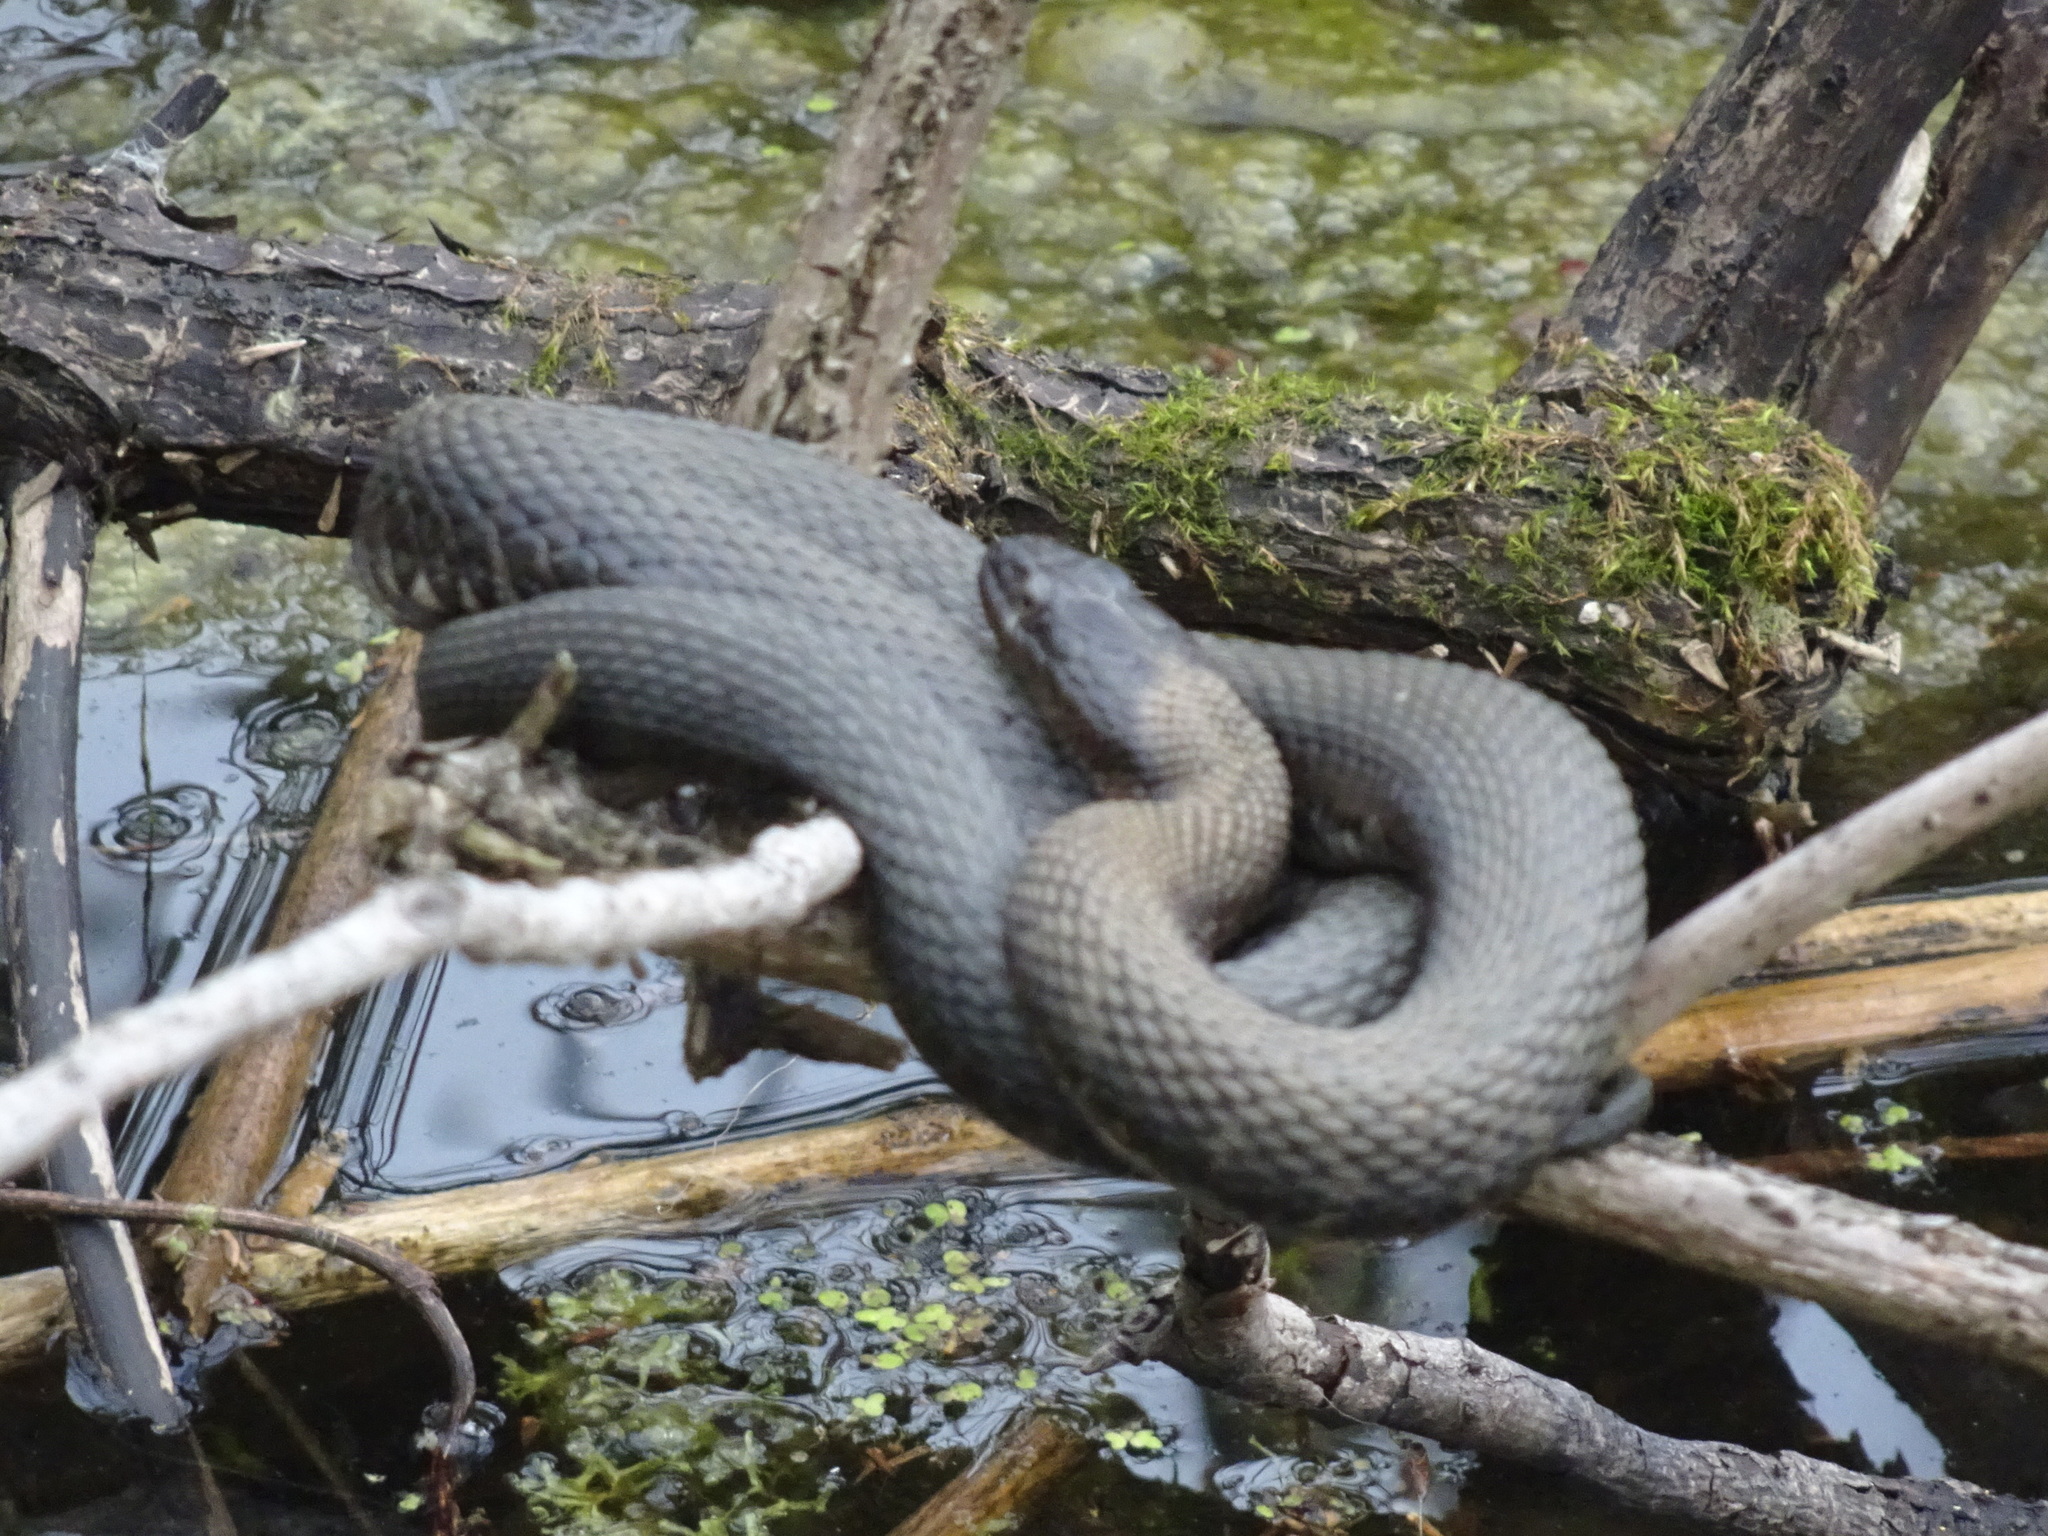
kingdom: Animalia
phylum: Chordata
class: Squamata
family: Colubridae
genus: Nerodia
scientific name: Nerodia sipedon
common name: Northern water snake
